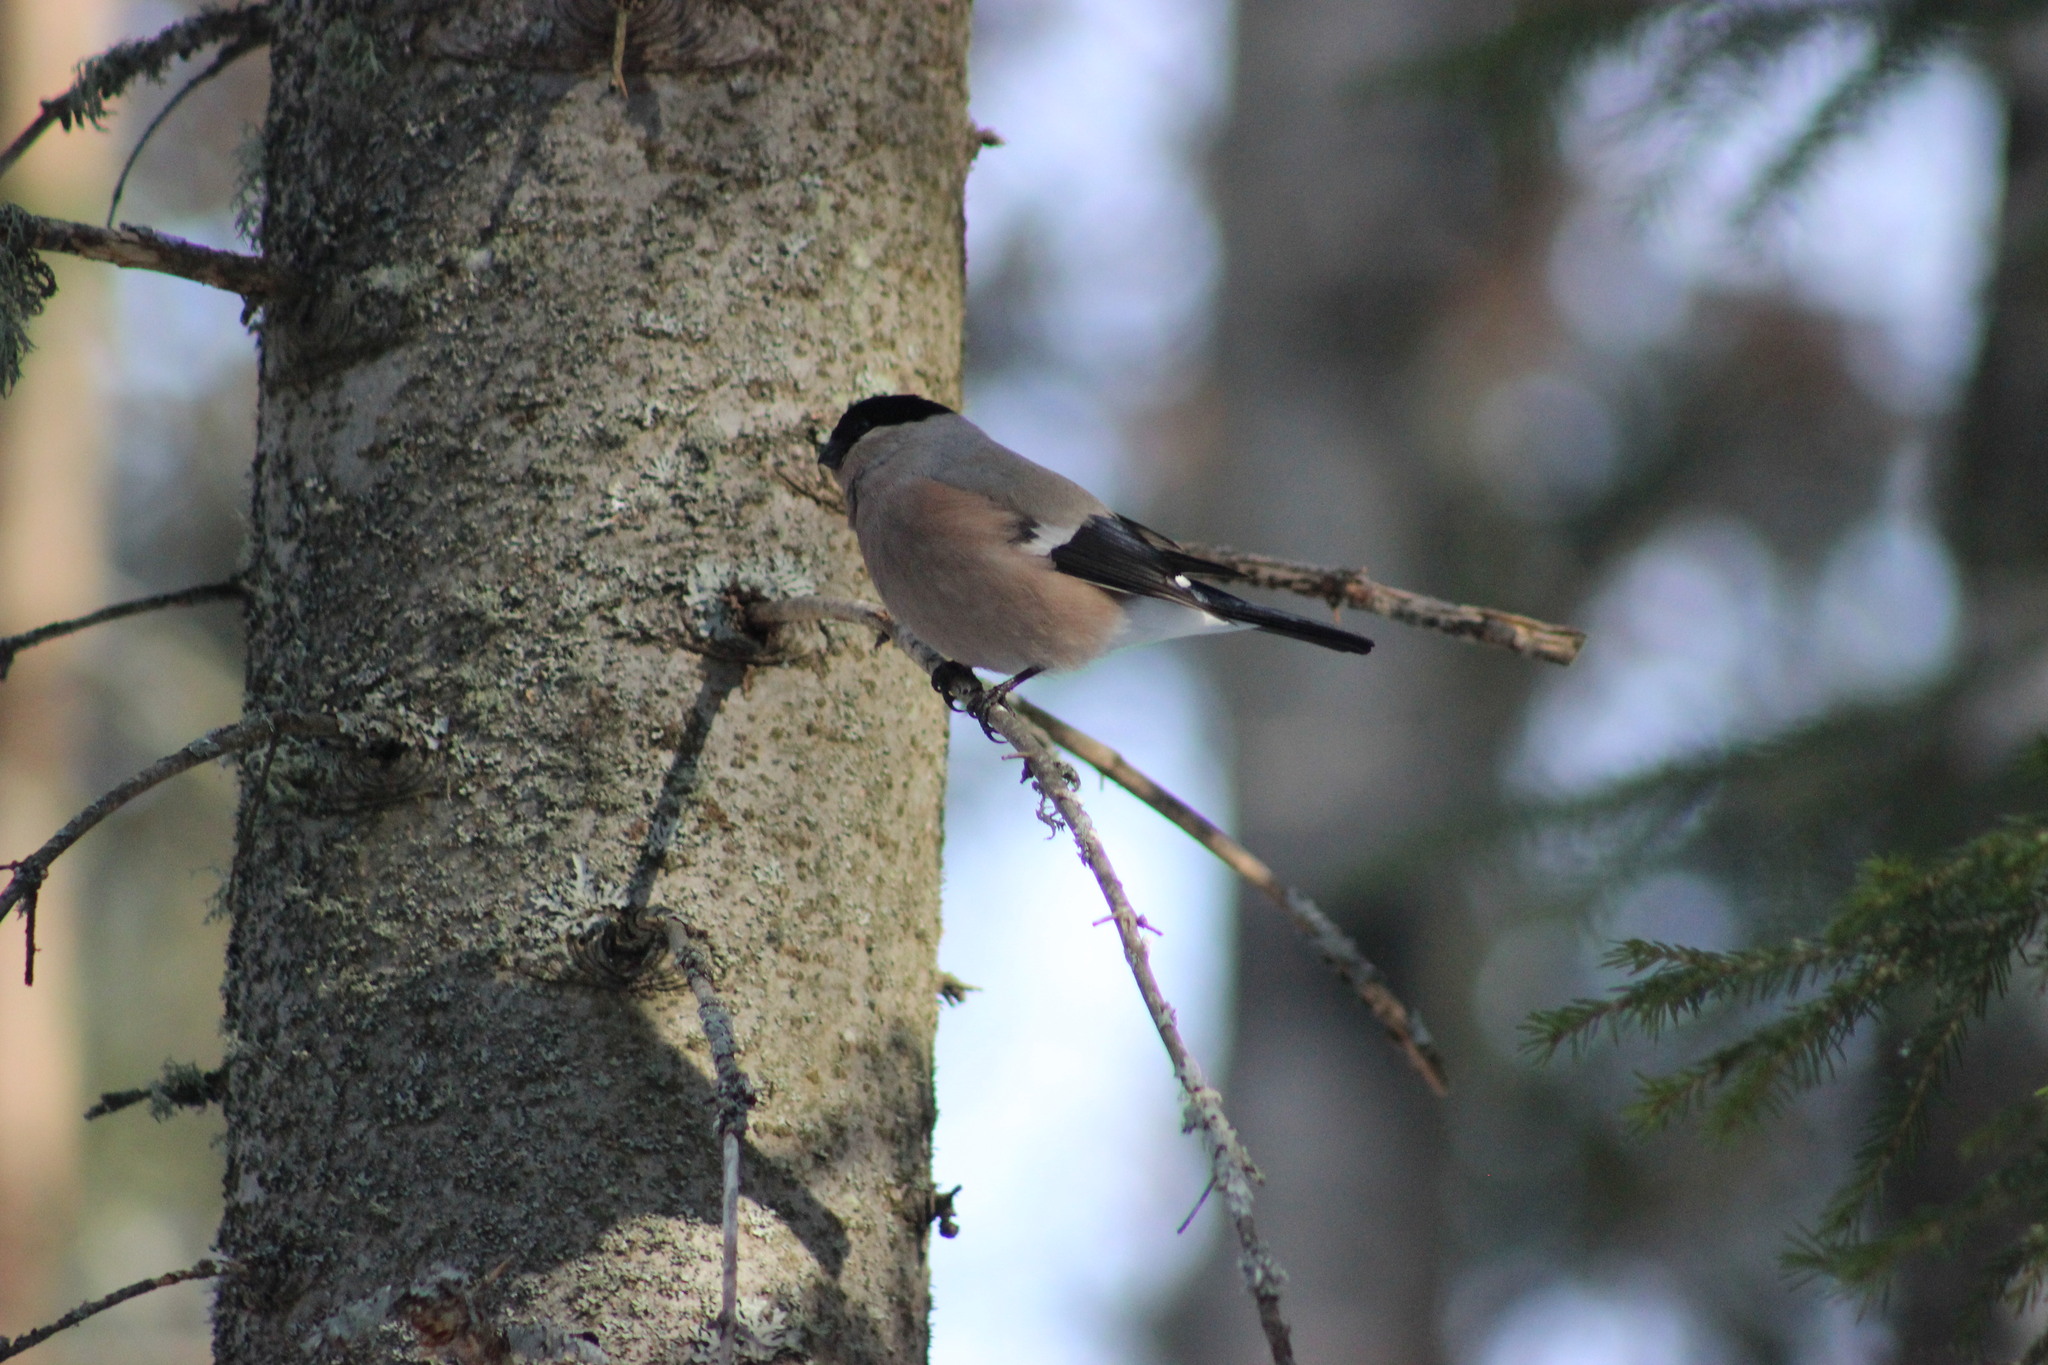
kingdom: Animalia
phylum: Chordata
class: Aves
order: Passeriformes
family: Fringillidae
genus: Pyrrhula
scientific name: Pyrrhula pyrrhula
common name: Eurasian bullfinch
